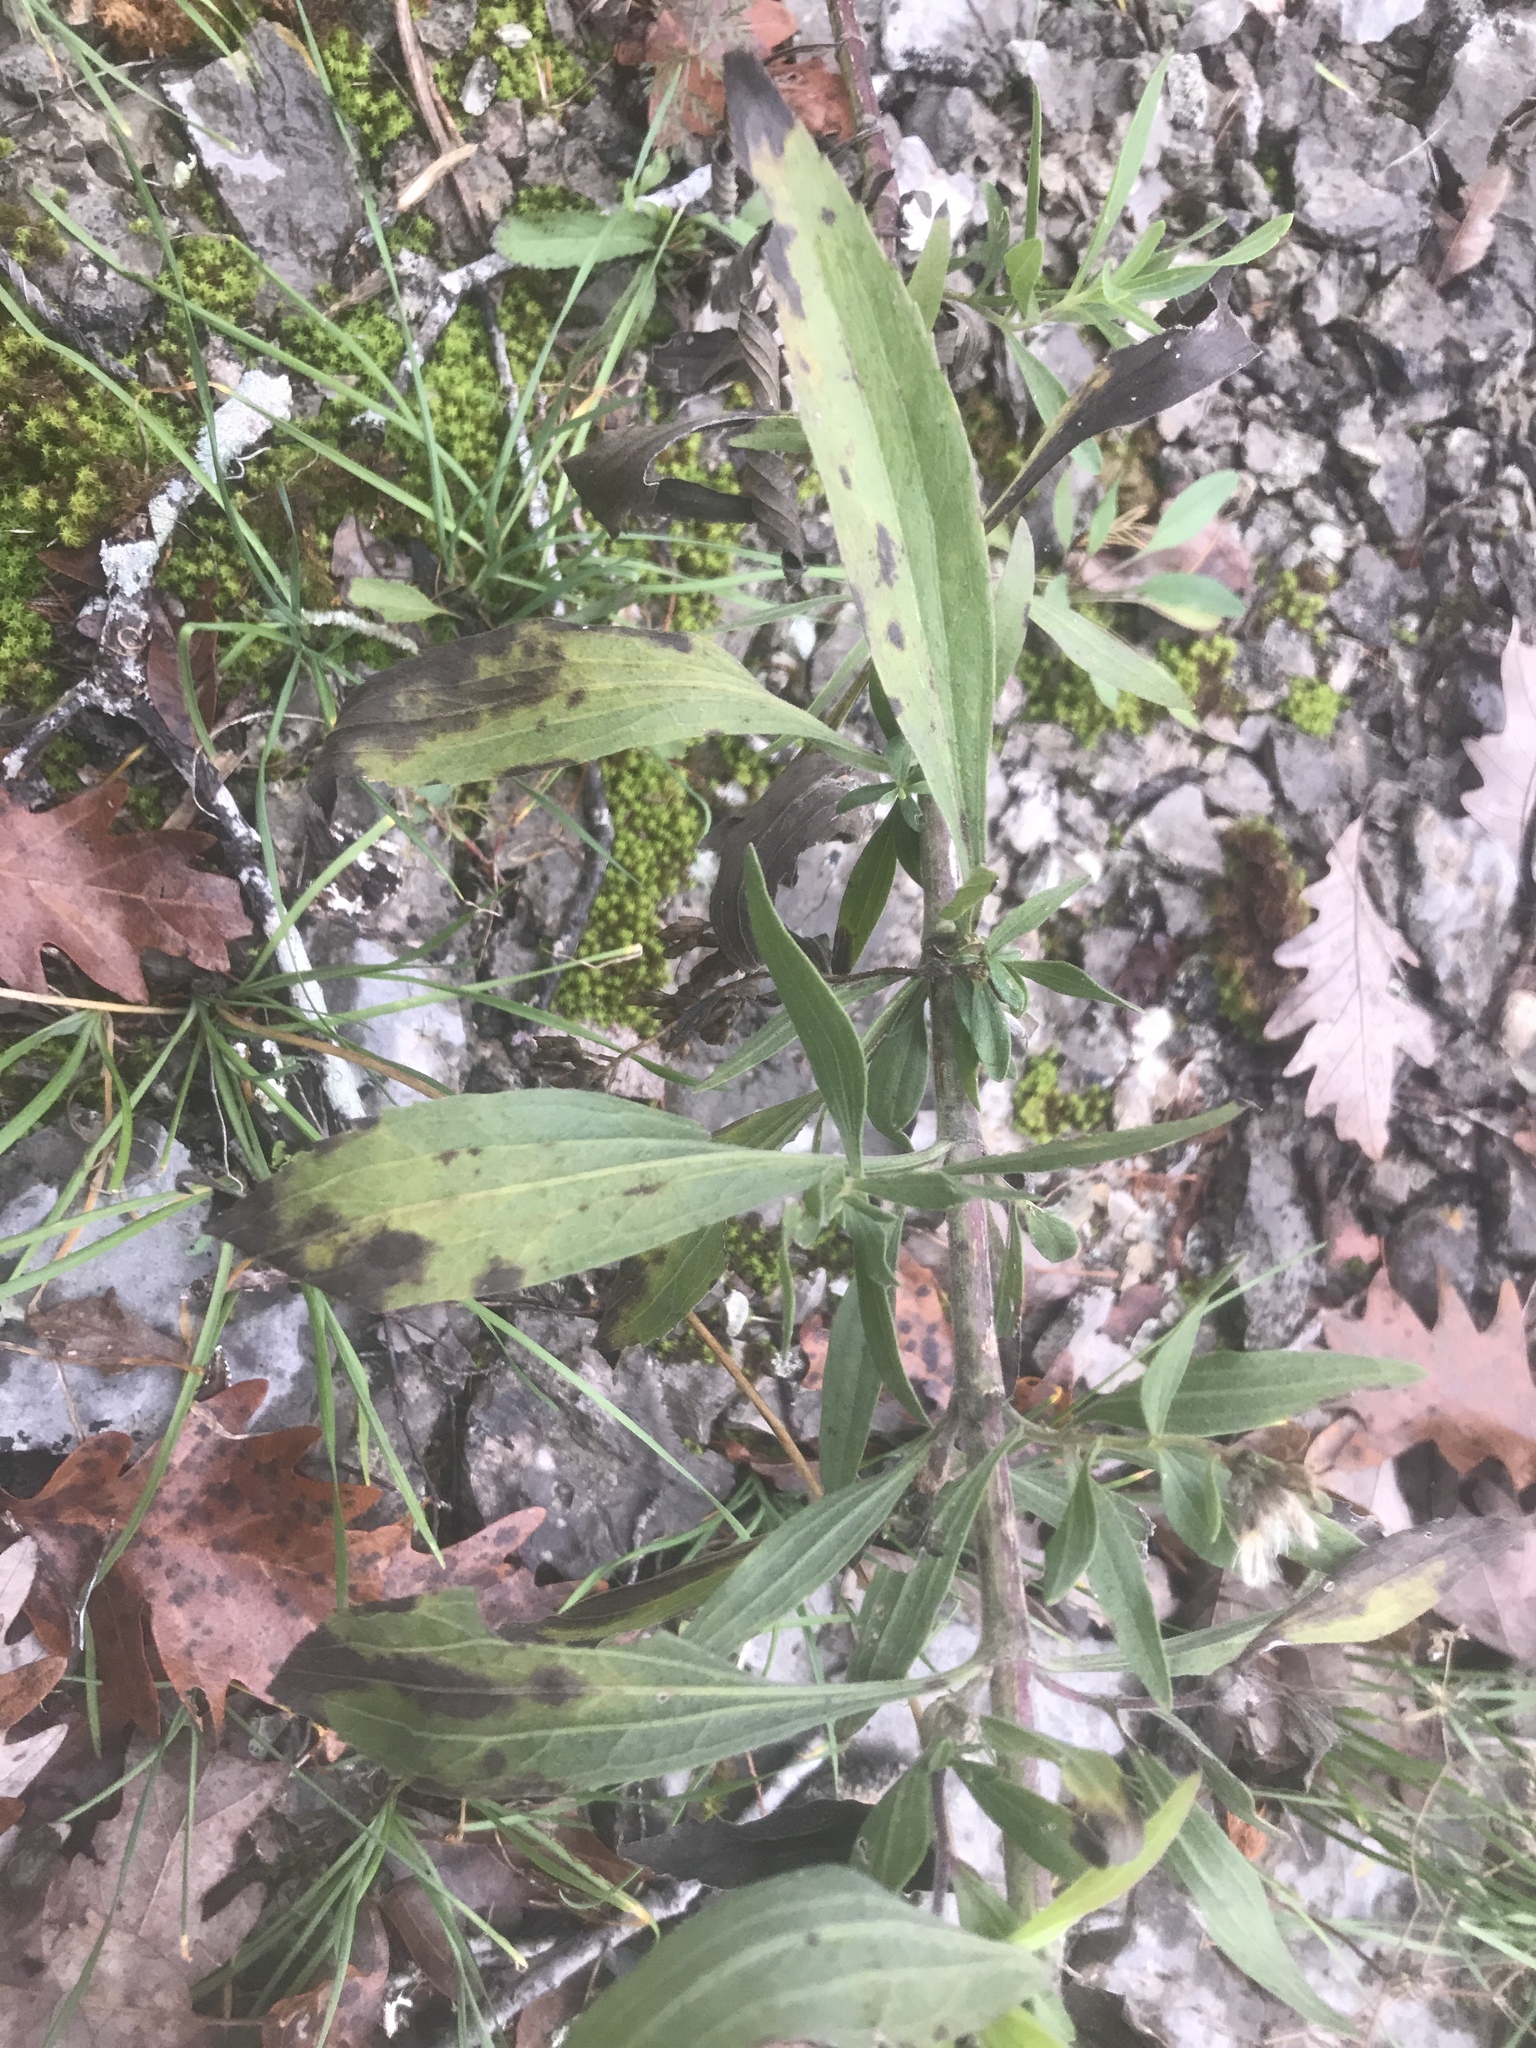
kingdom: Plantae
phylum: Tracheophyta
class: Magnoliopsida
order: Asterales
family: Asteraceae
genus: Eupatorium
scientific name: Eupatorium altissimum
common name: Tall thoroughwort
